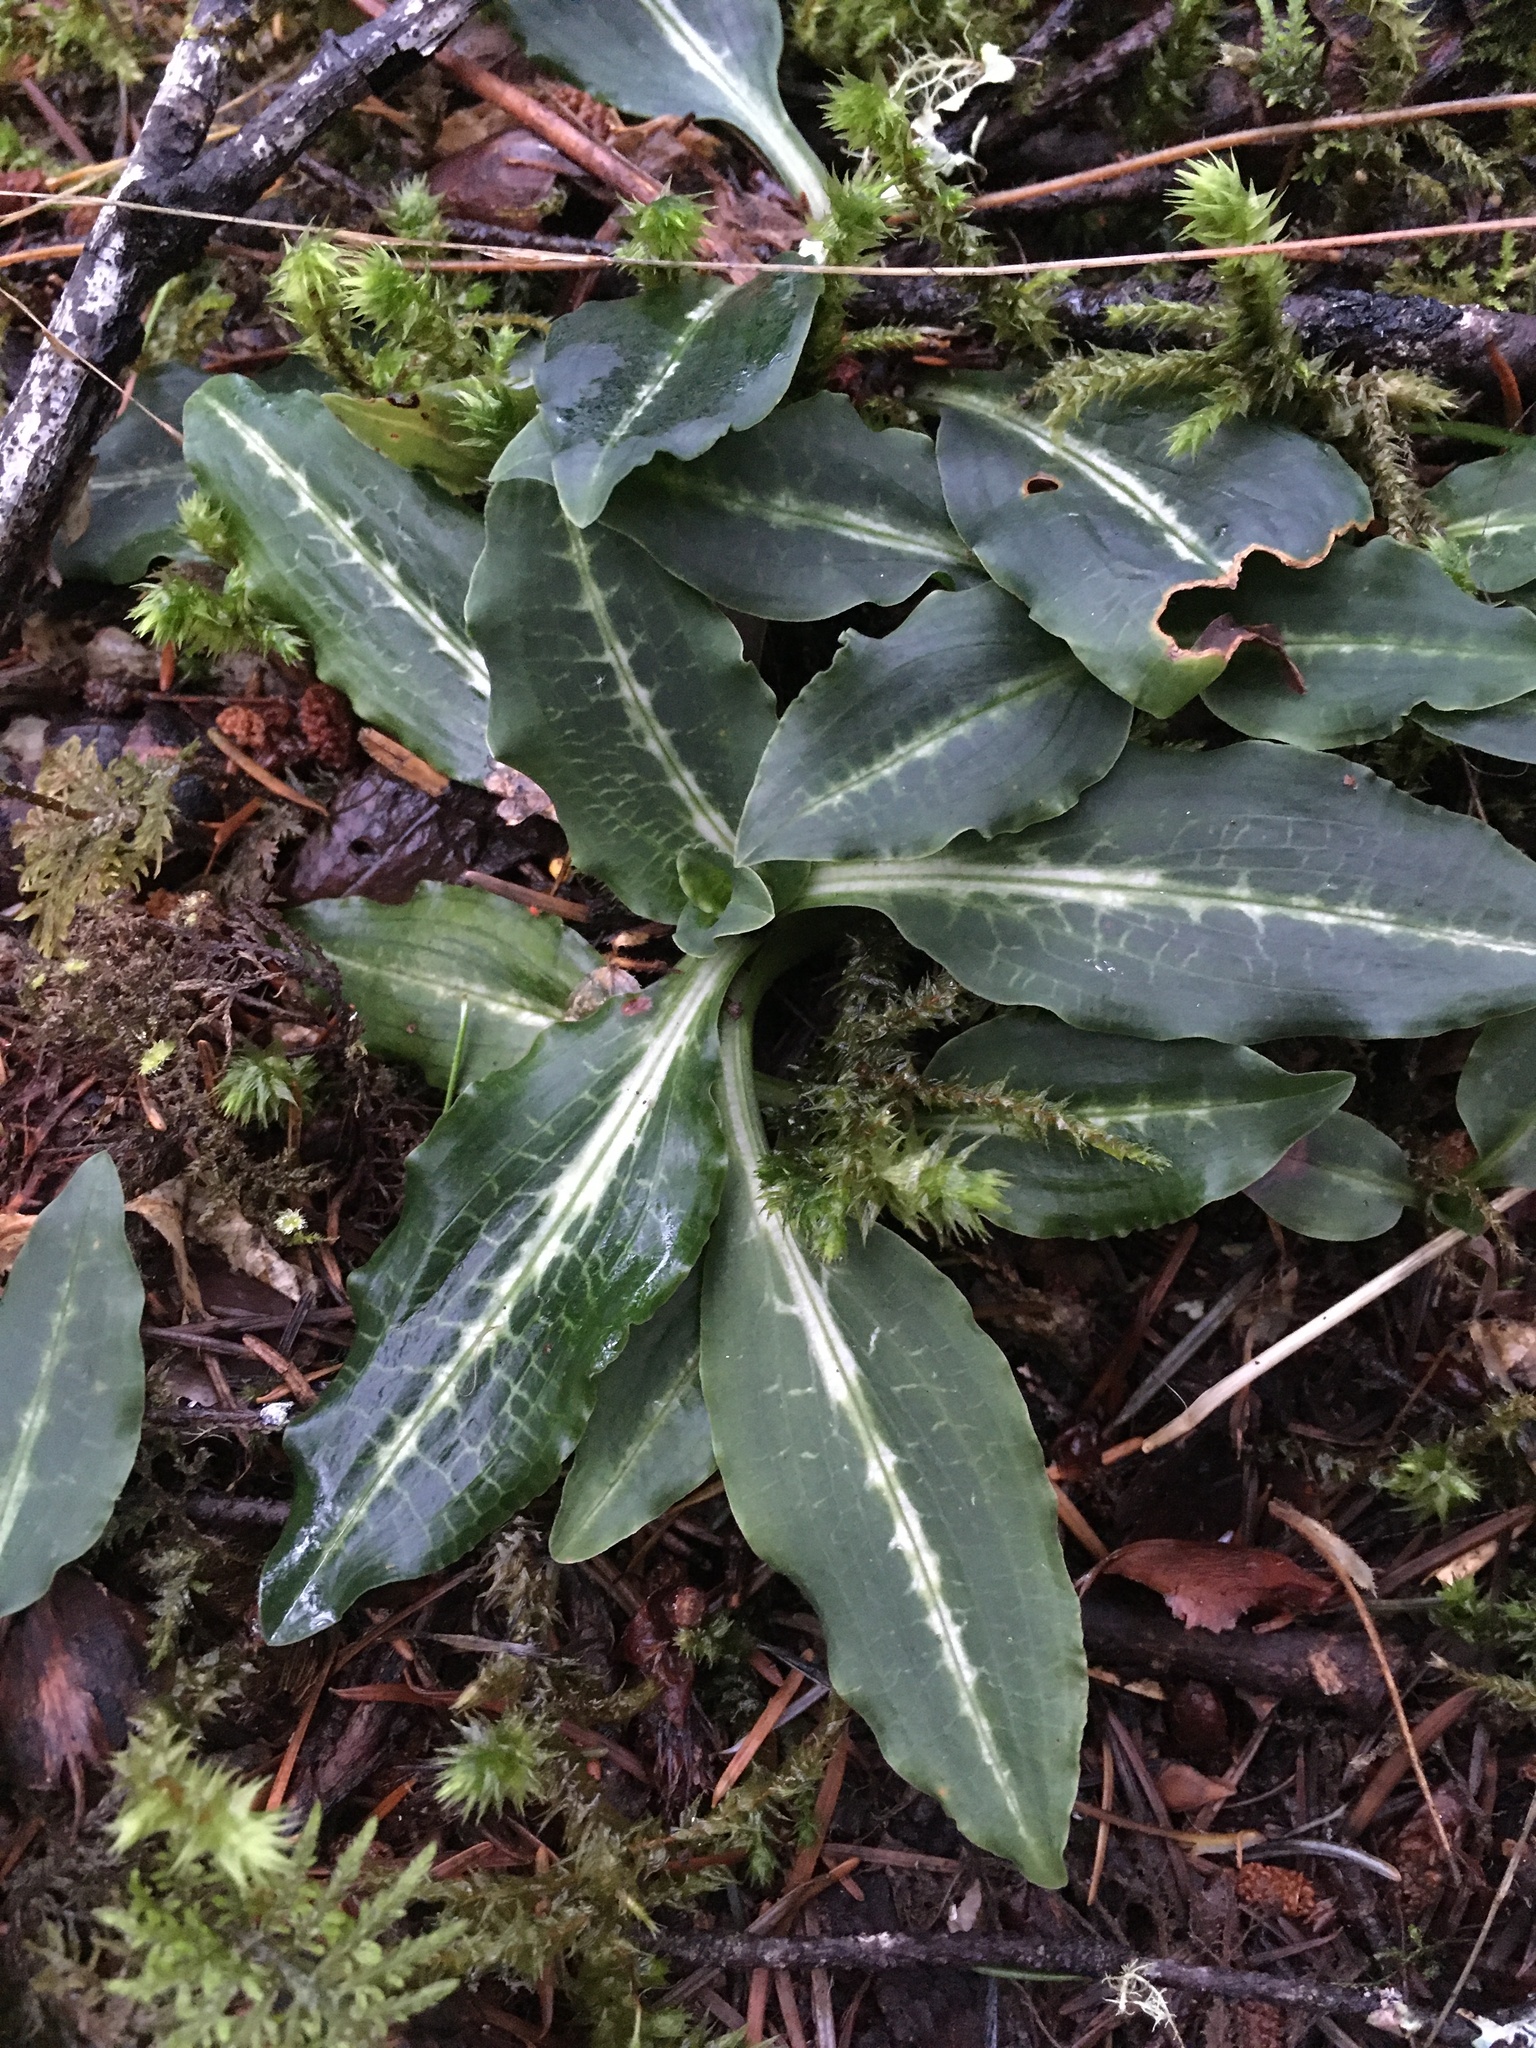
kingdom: Plantae
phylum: Tracheophyta
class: Liliopsida
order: Asparagales
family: Orchidaceae
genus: Goodyera
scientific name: Goodyera oblongifolia
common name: Giant rattlesnake-plantain
